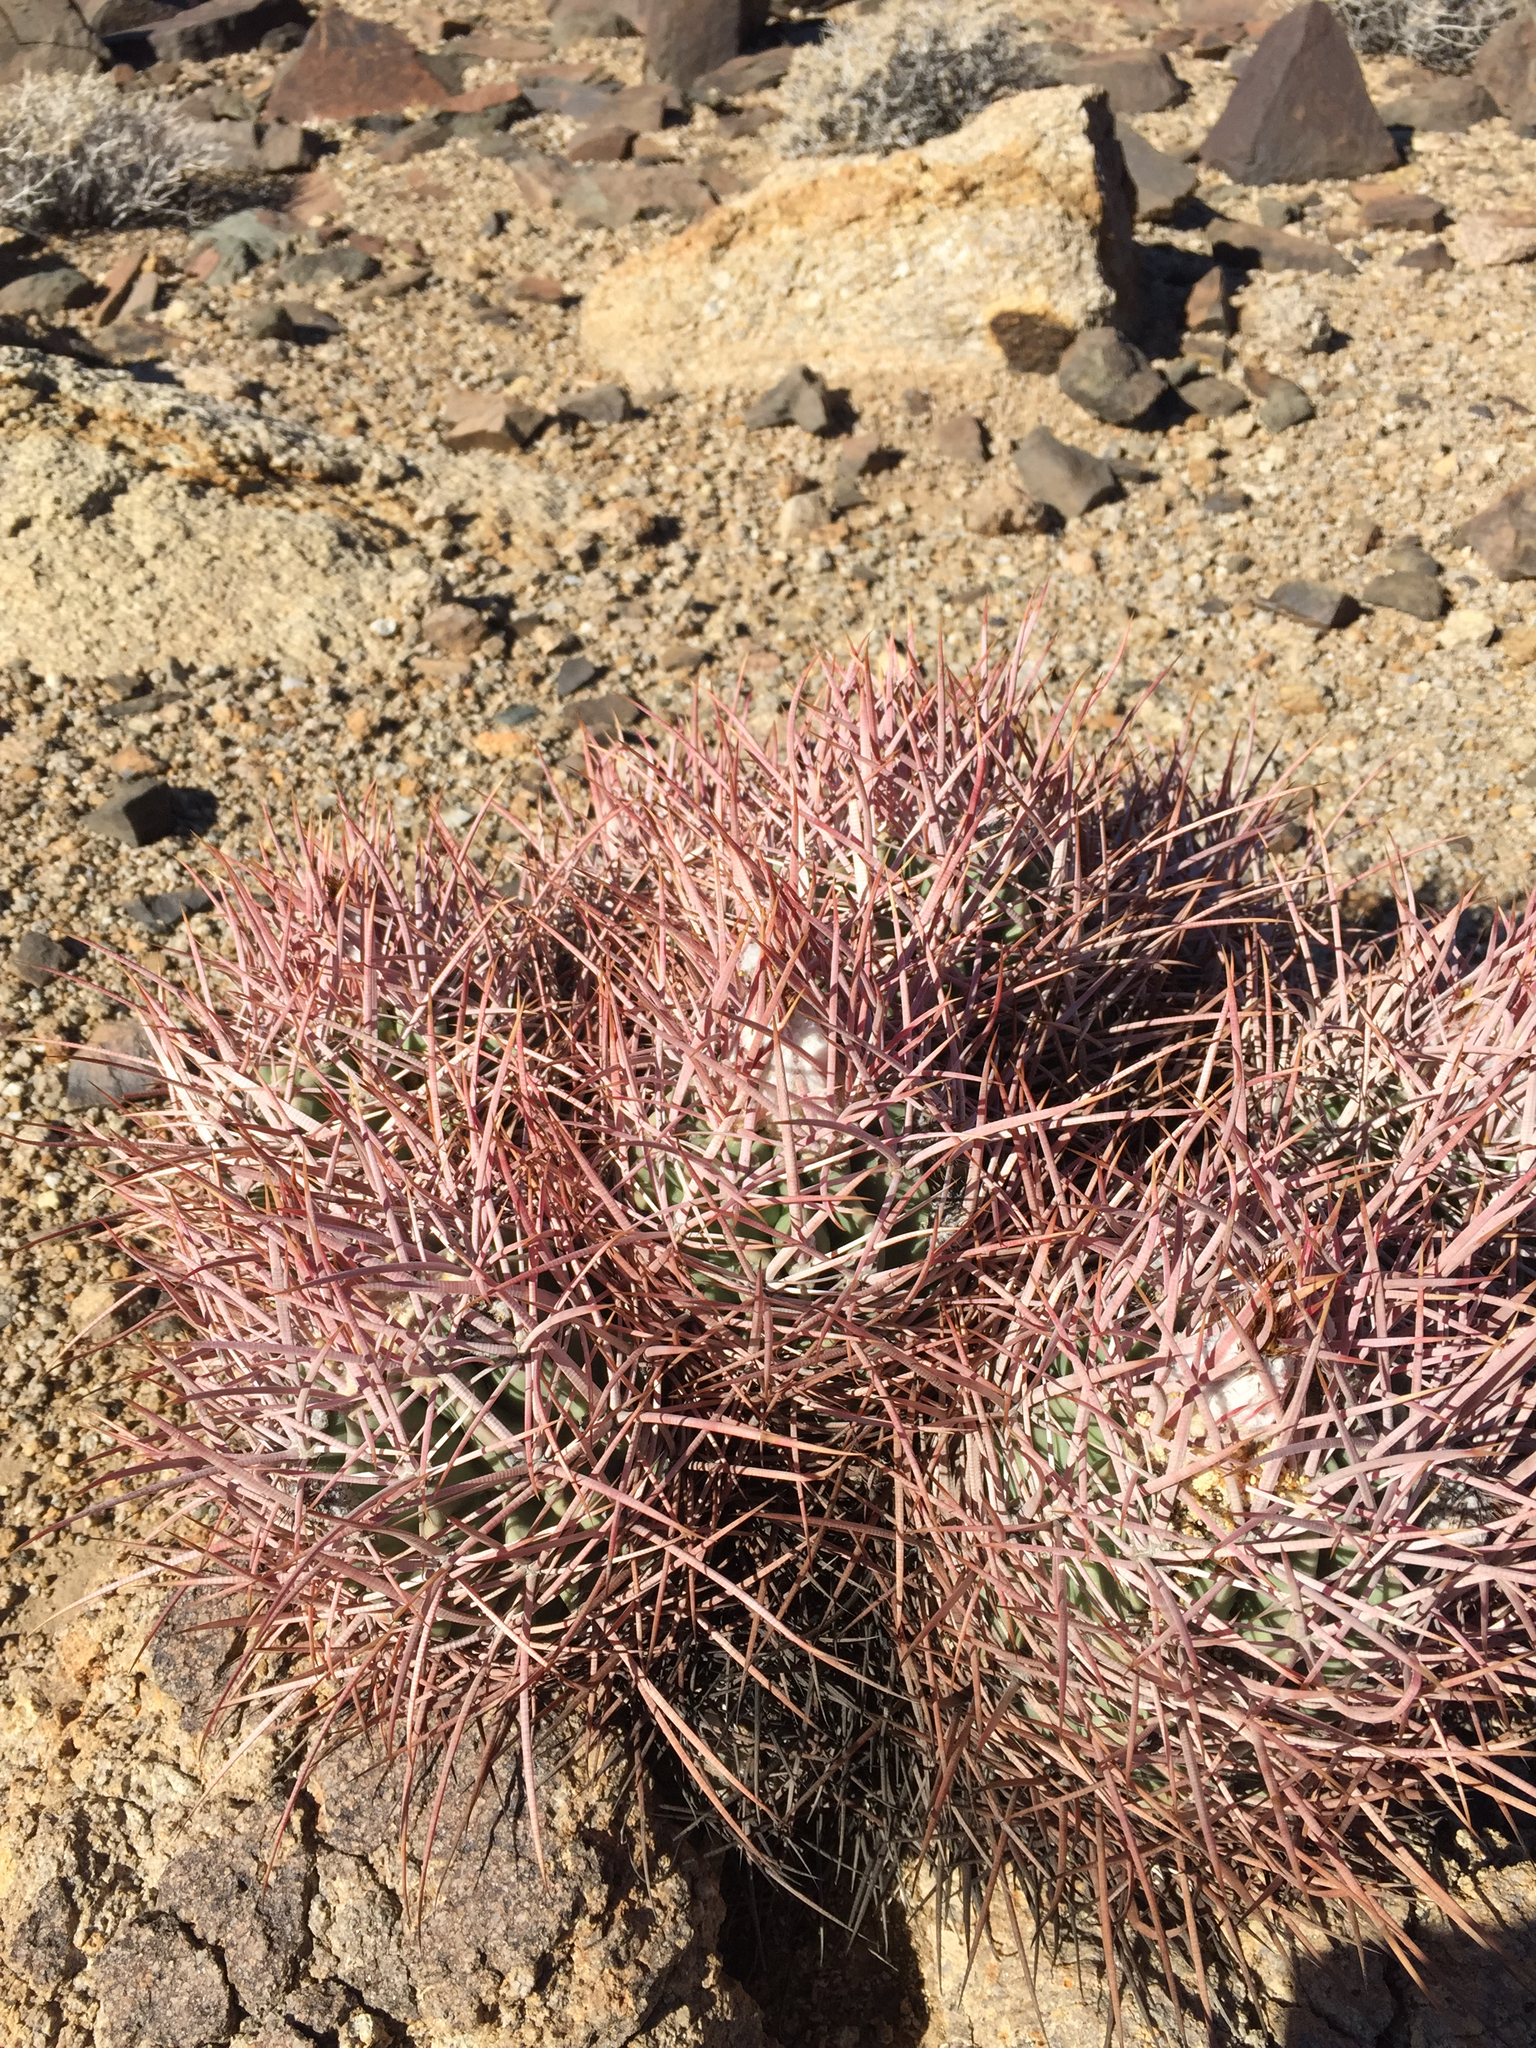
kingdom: Plantae
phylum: Tracheophyta
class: Magnoliopsida
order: Caryophyllales
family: Cactaceae
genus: Echinocactus
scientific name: Echinocactus polycephalus
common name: Cottontop cactus
